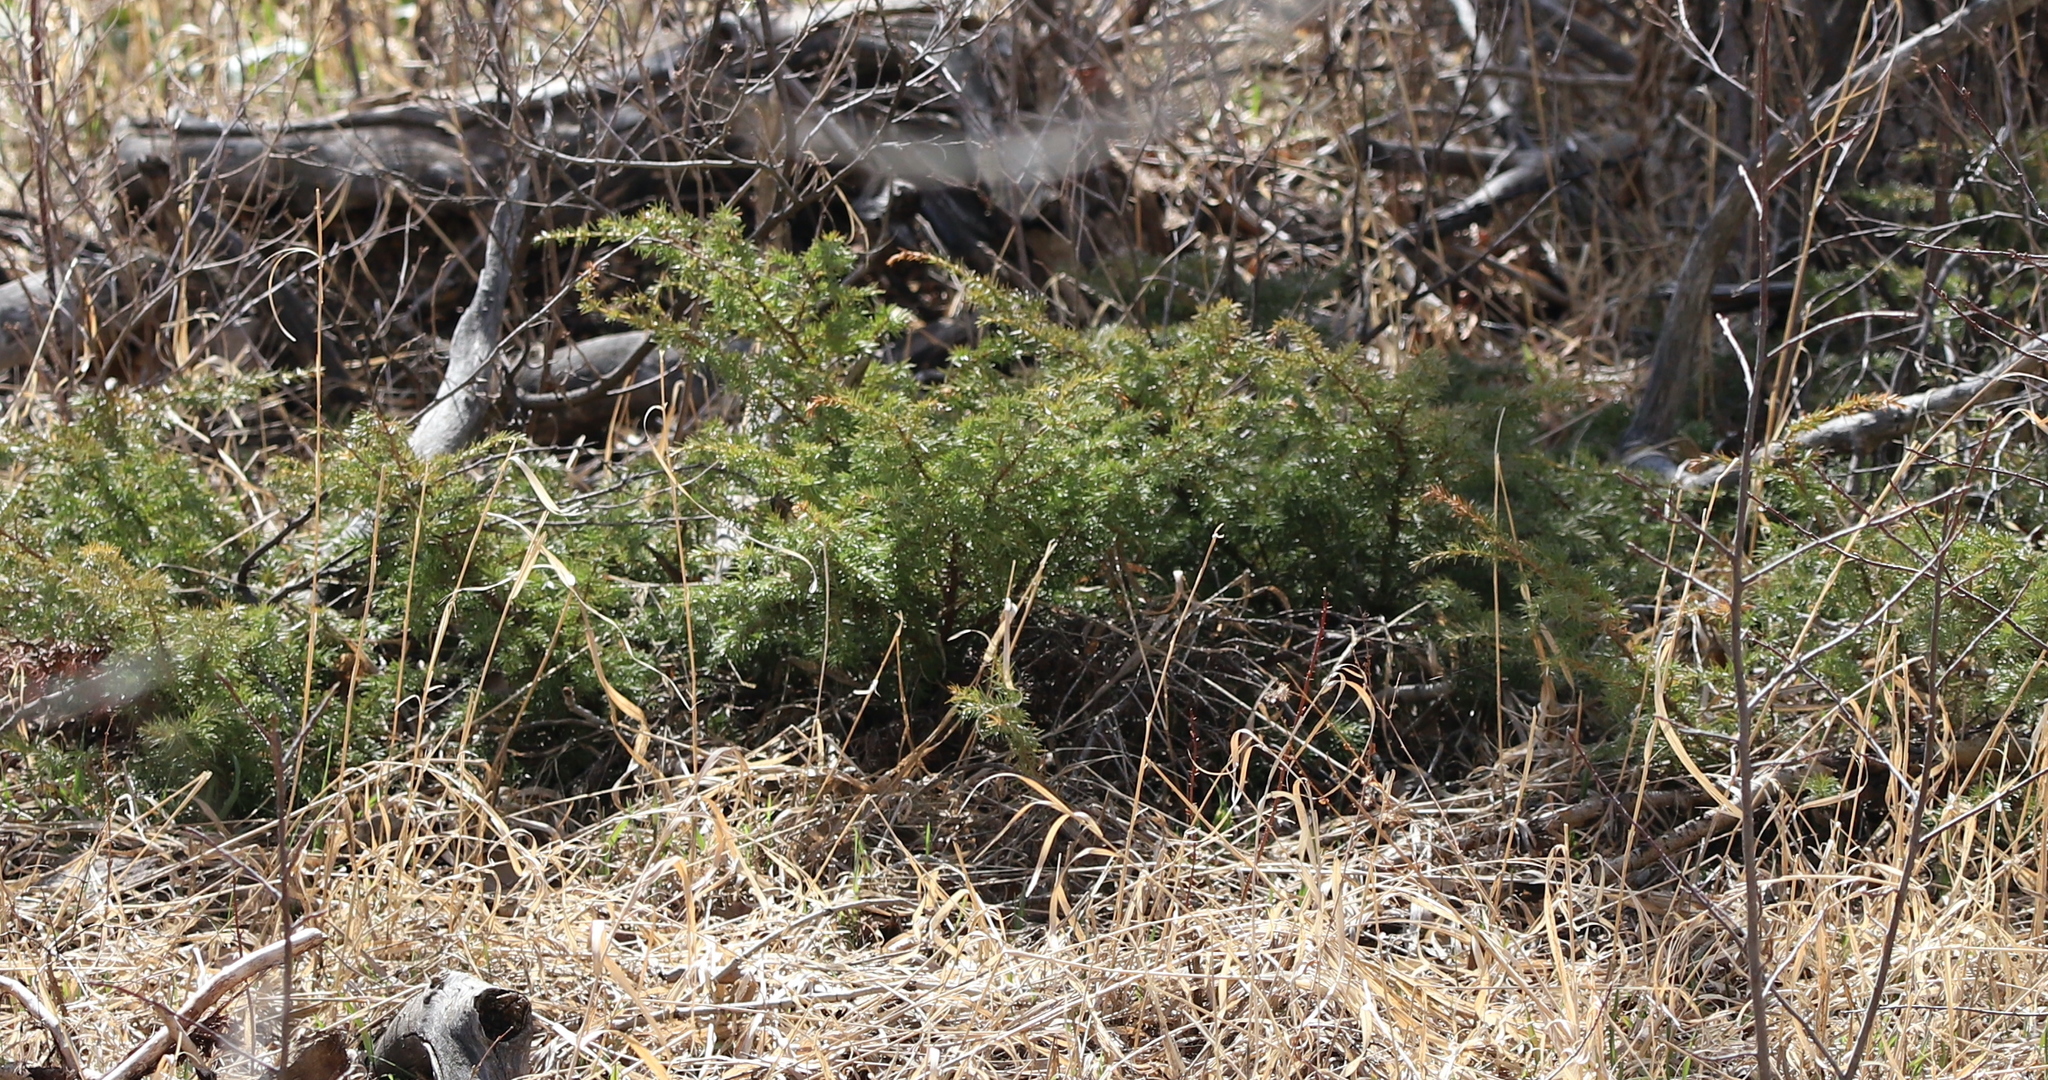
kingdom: Plantae
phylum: Tracheophyta
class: Pinopsida
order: Pinales
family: Cupressaceae
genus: Juniperus
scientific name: Juniperus communis
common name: Common juniper
